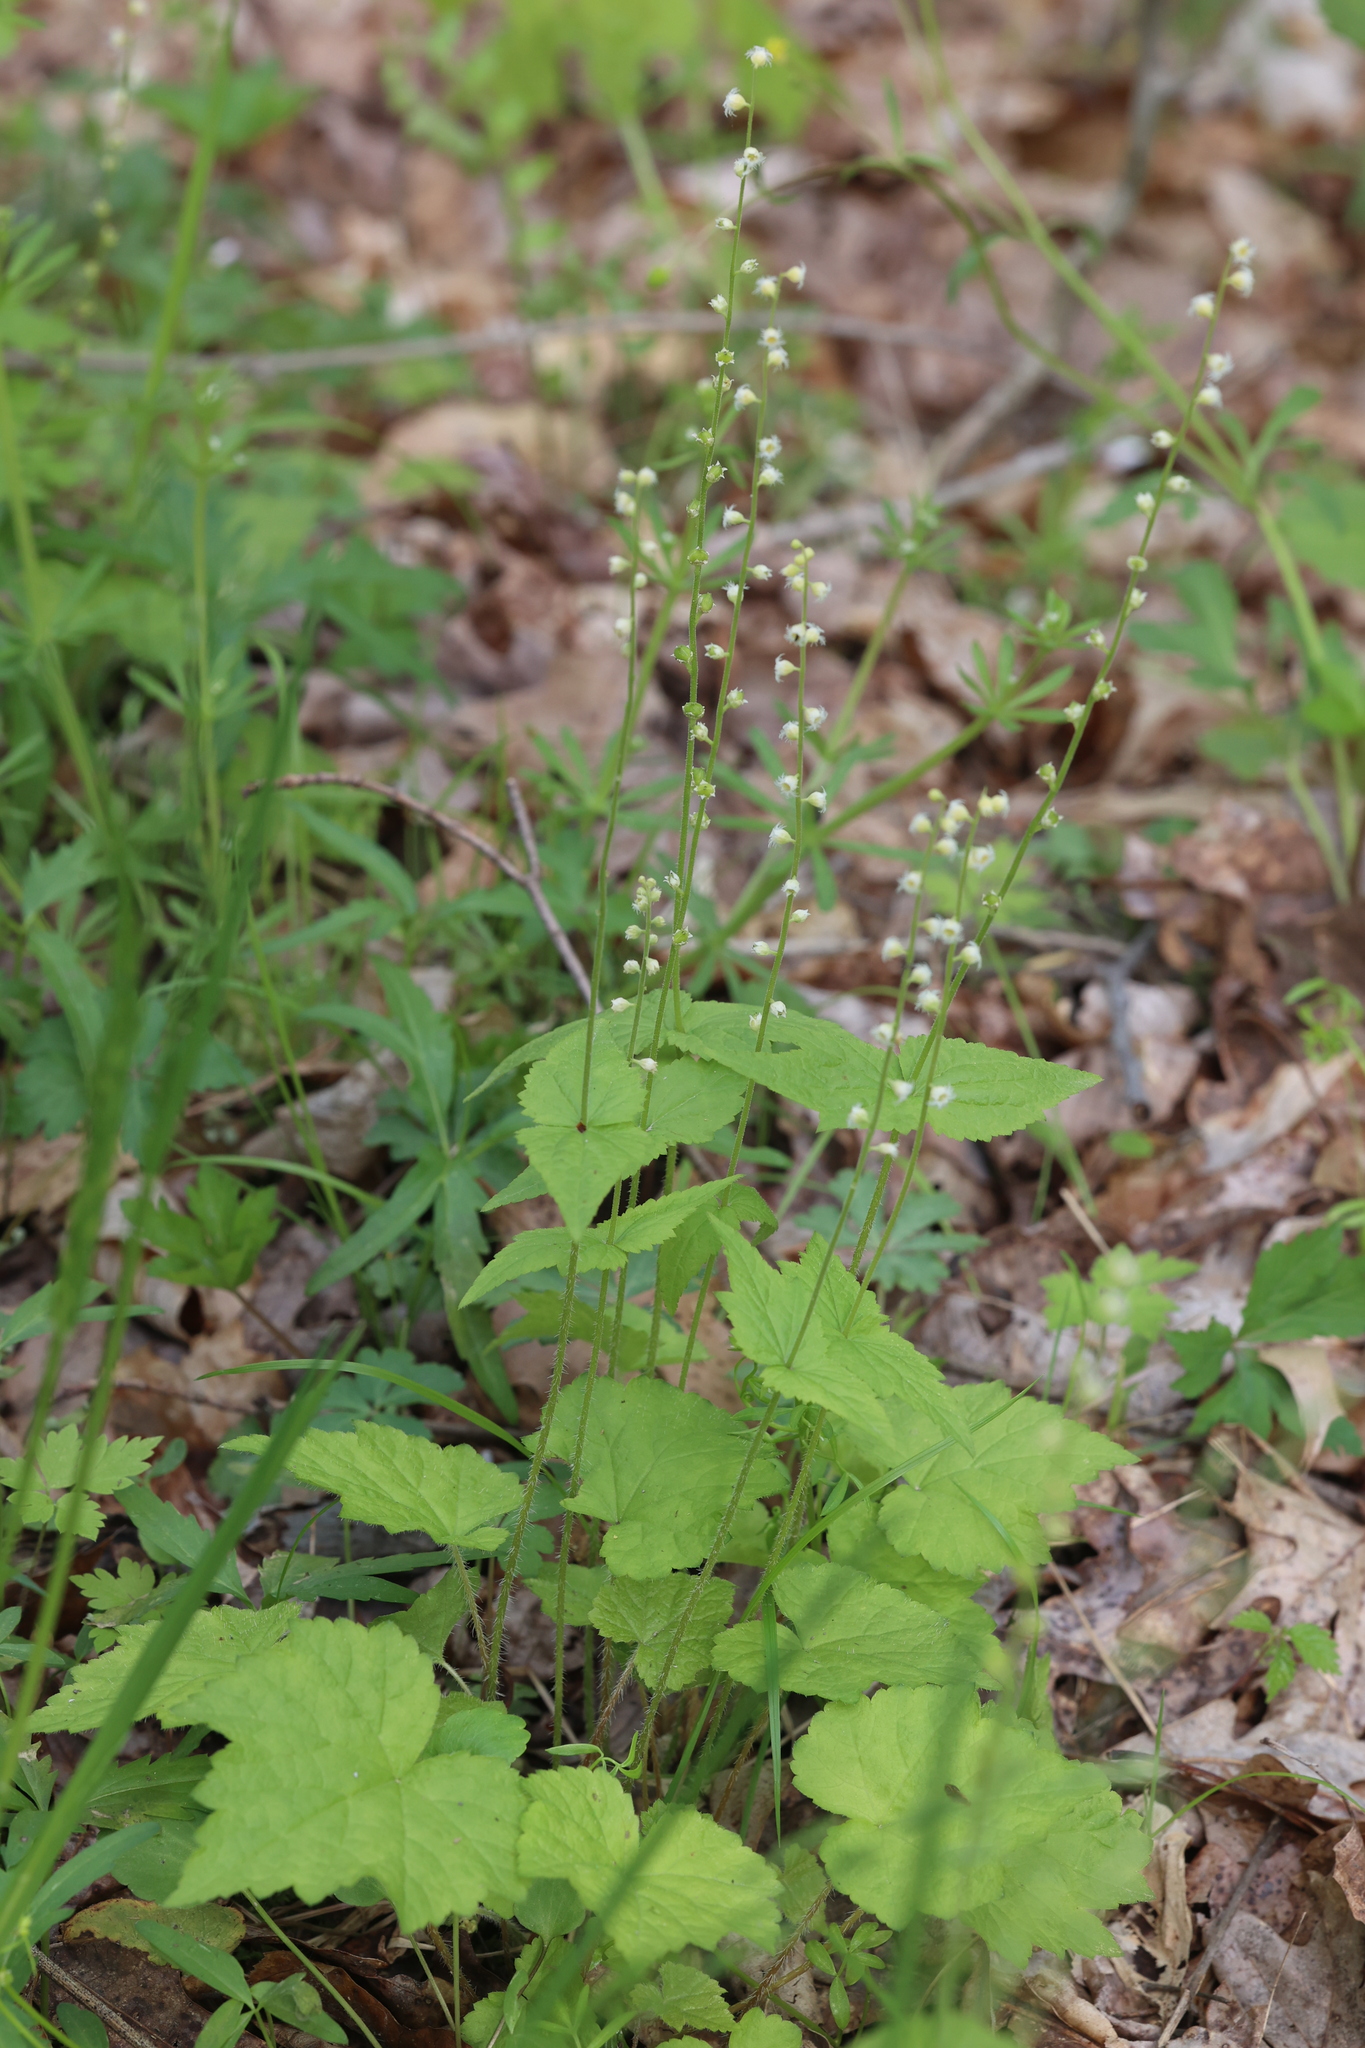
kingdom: Plantae
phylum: Tracheophyta
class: Magnoliopsida
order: Saxifragales
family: Saxifragaceae
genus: Mitella
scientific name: Mitella diphylla
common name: Coolwort
